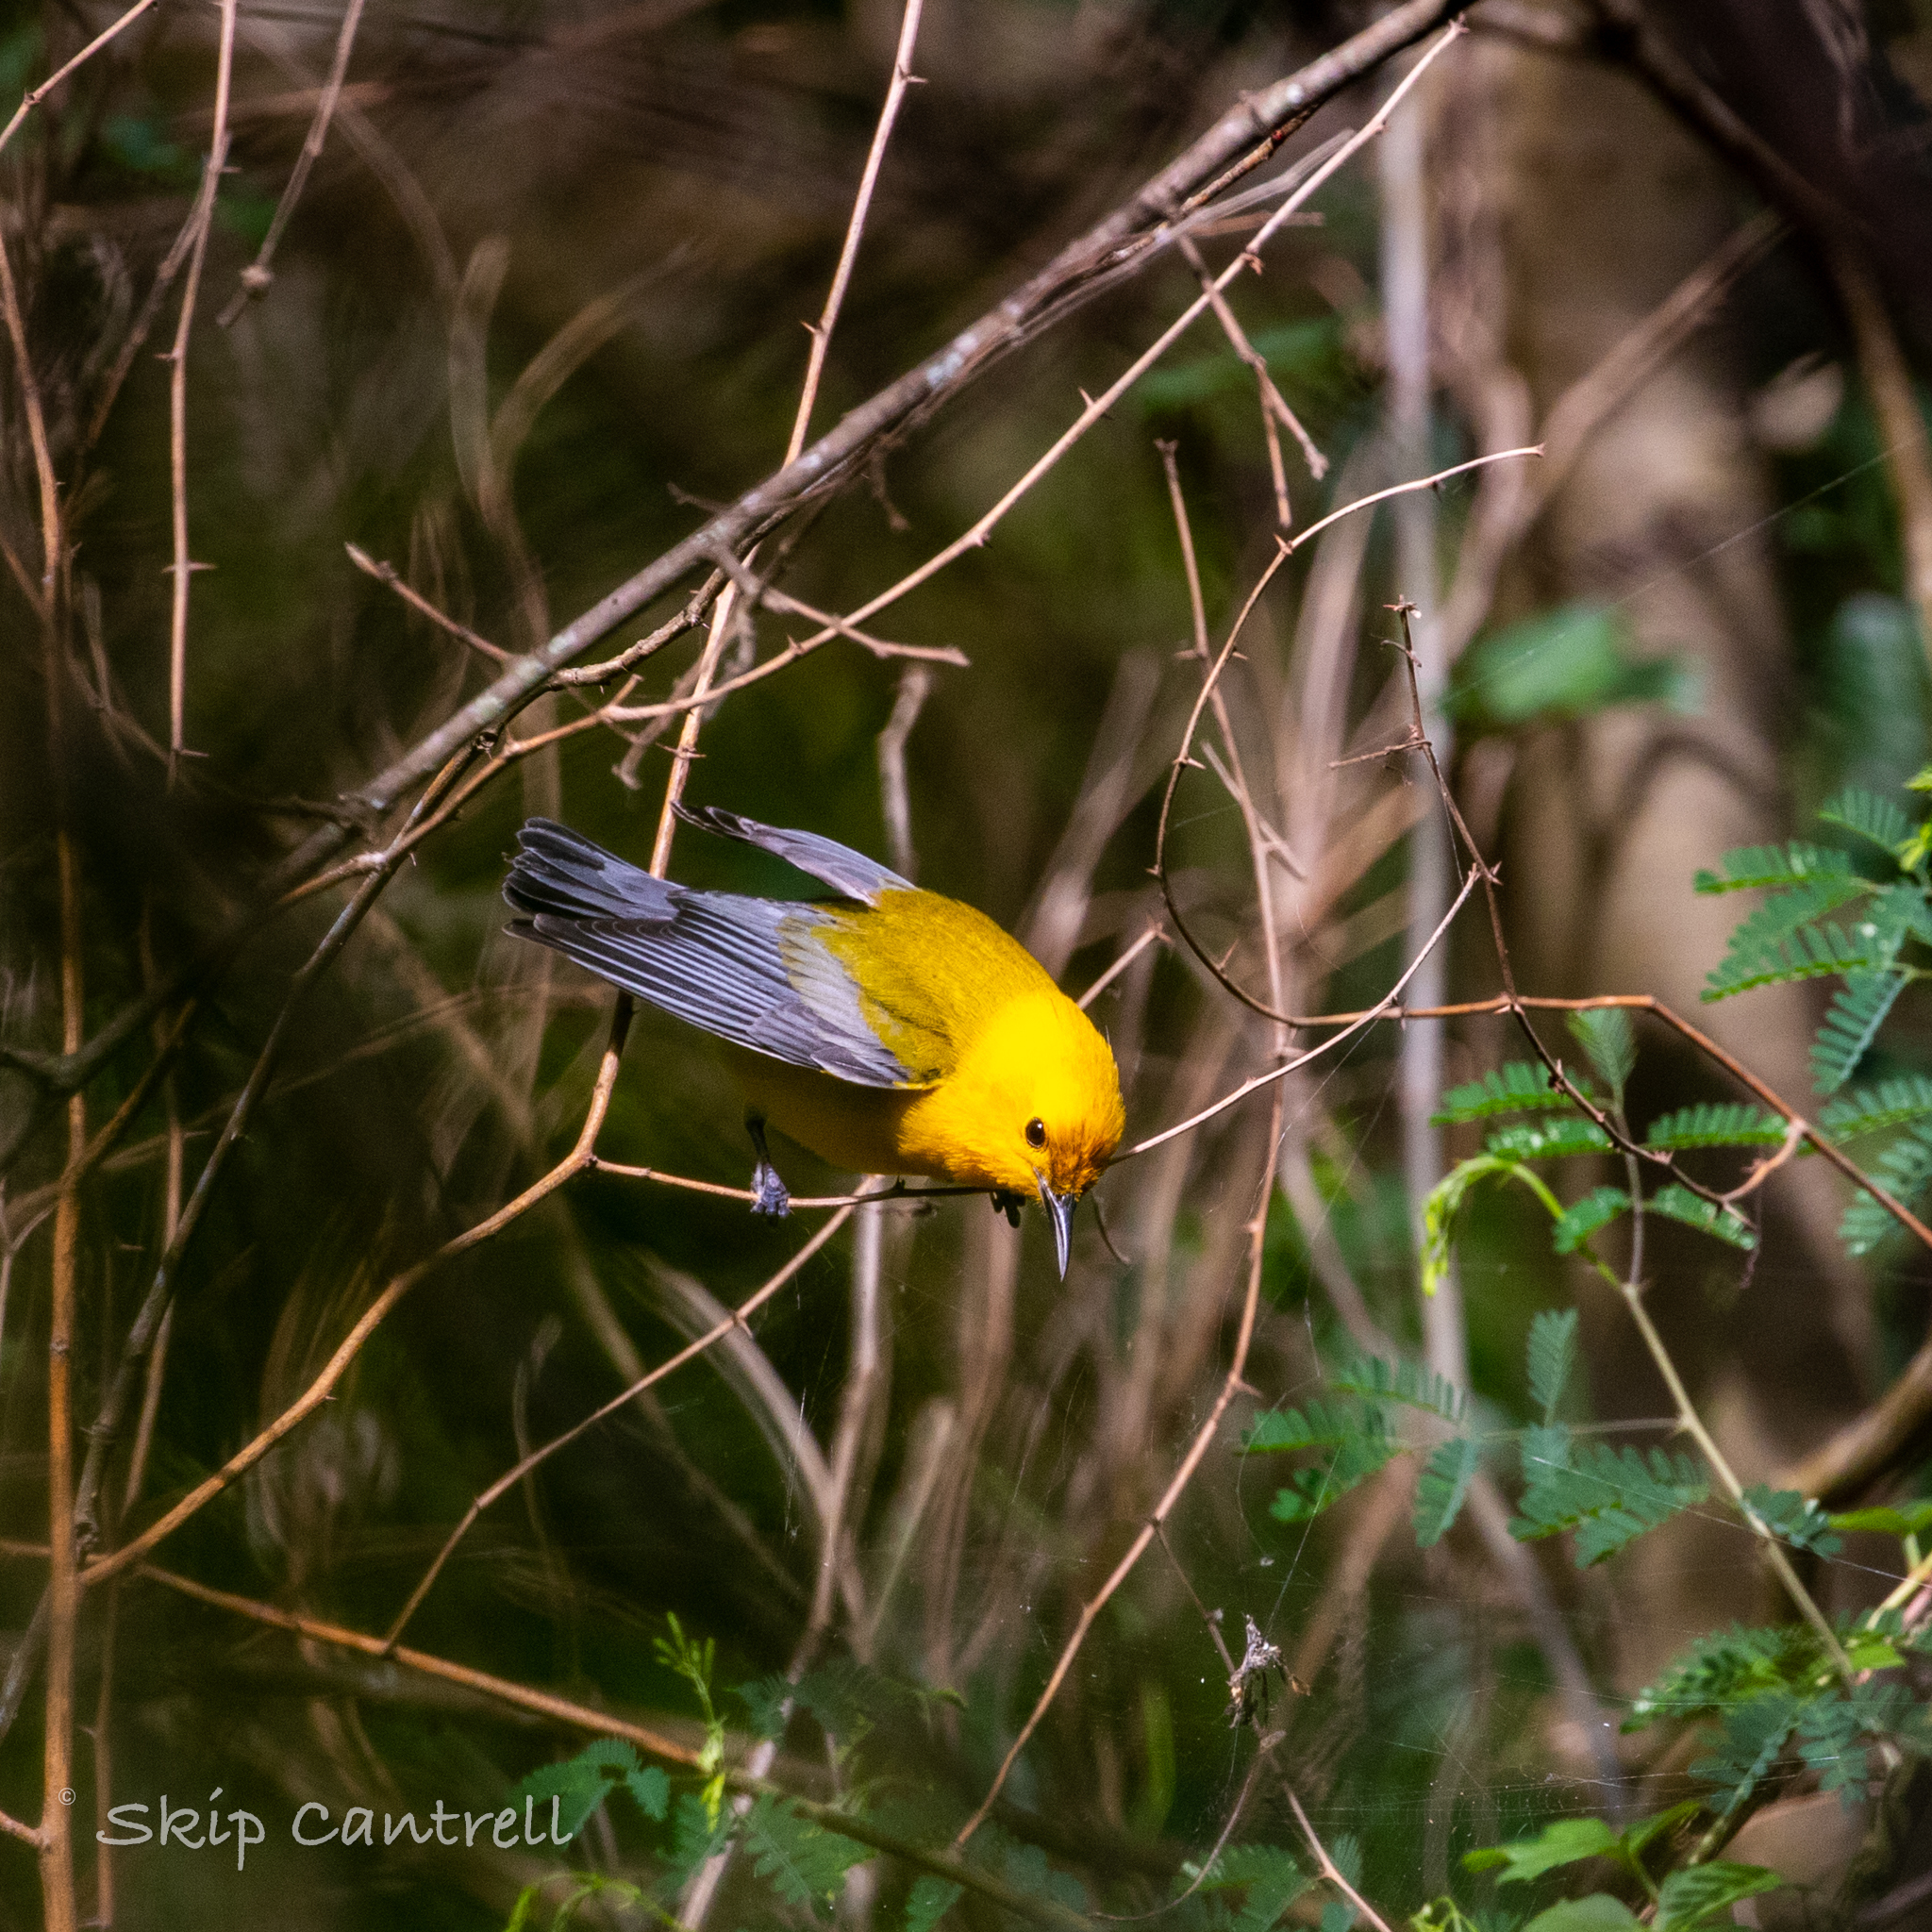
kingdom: Animalia
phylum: Chordata
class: Aves
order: Passeriformes
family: Parulidae
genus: Protonotaria
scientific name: Protonotaria citrea
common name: Prothonotary warbler
